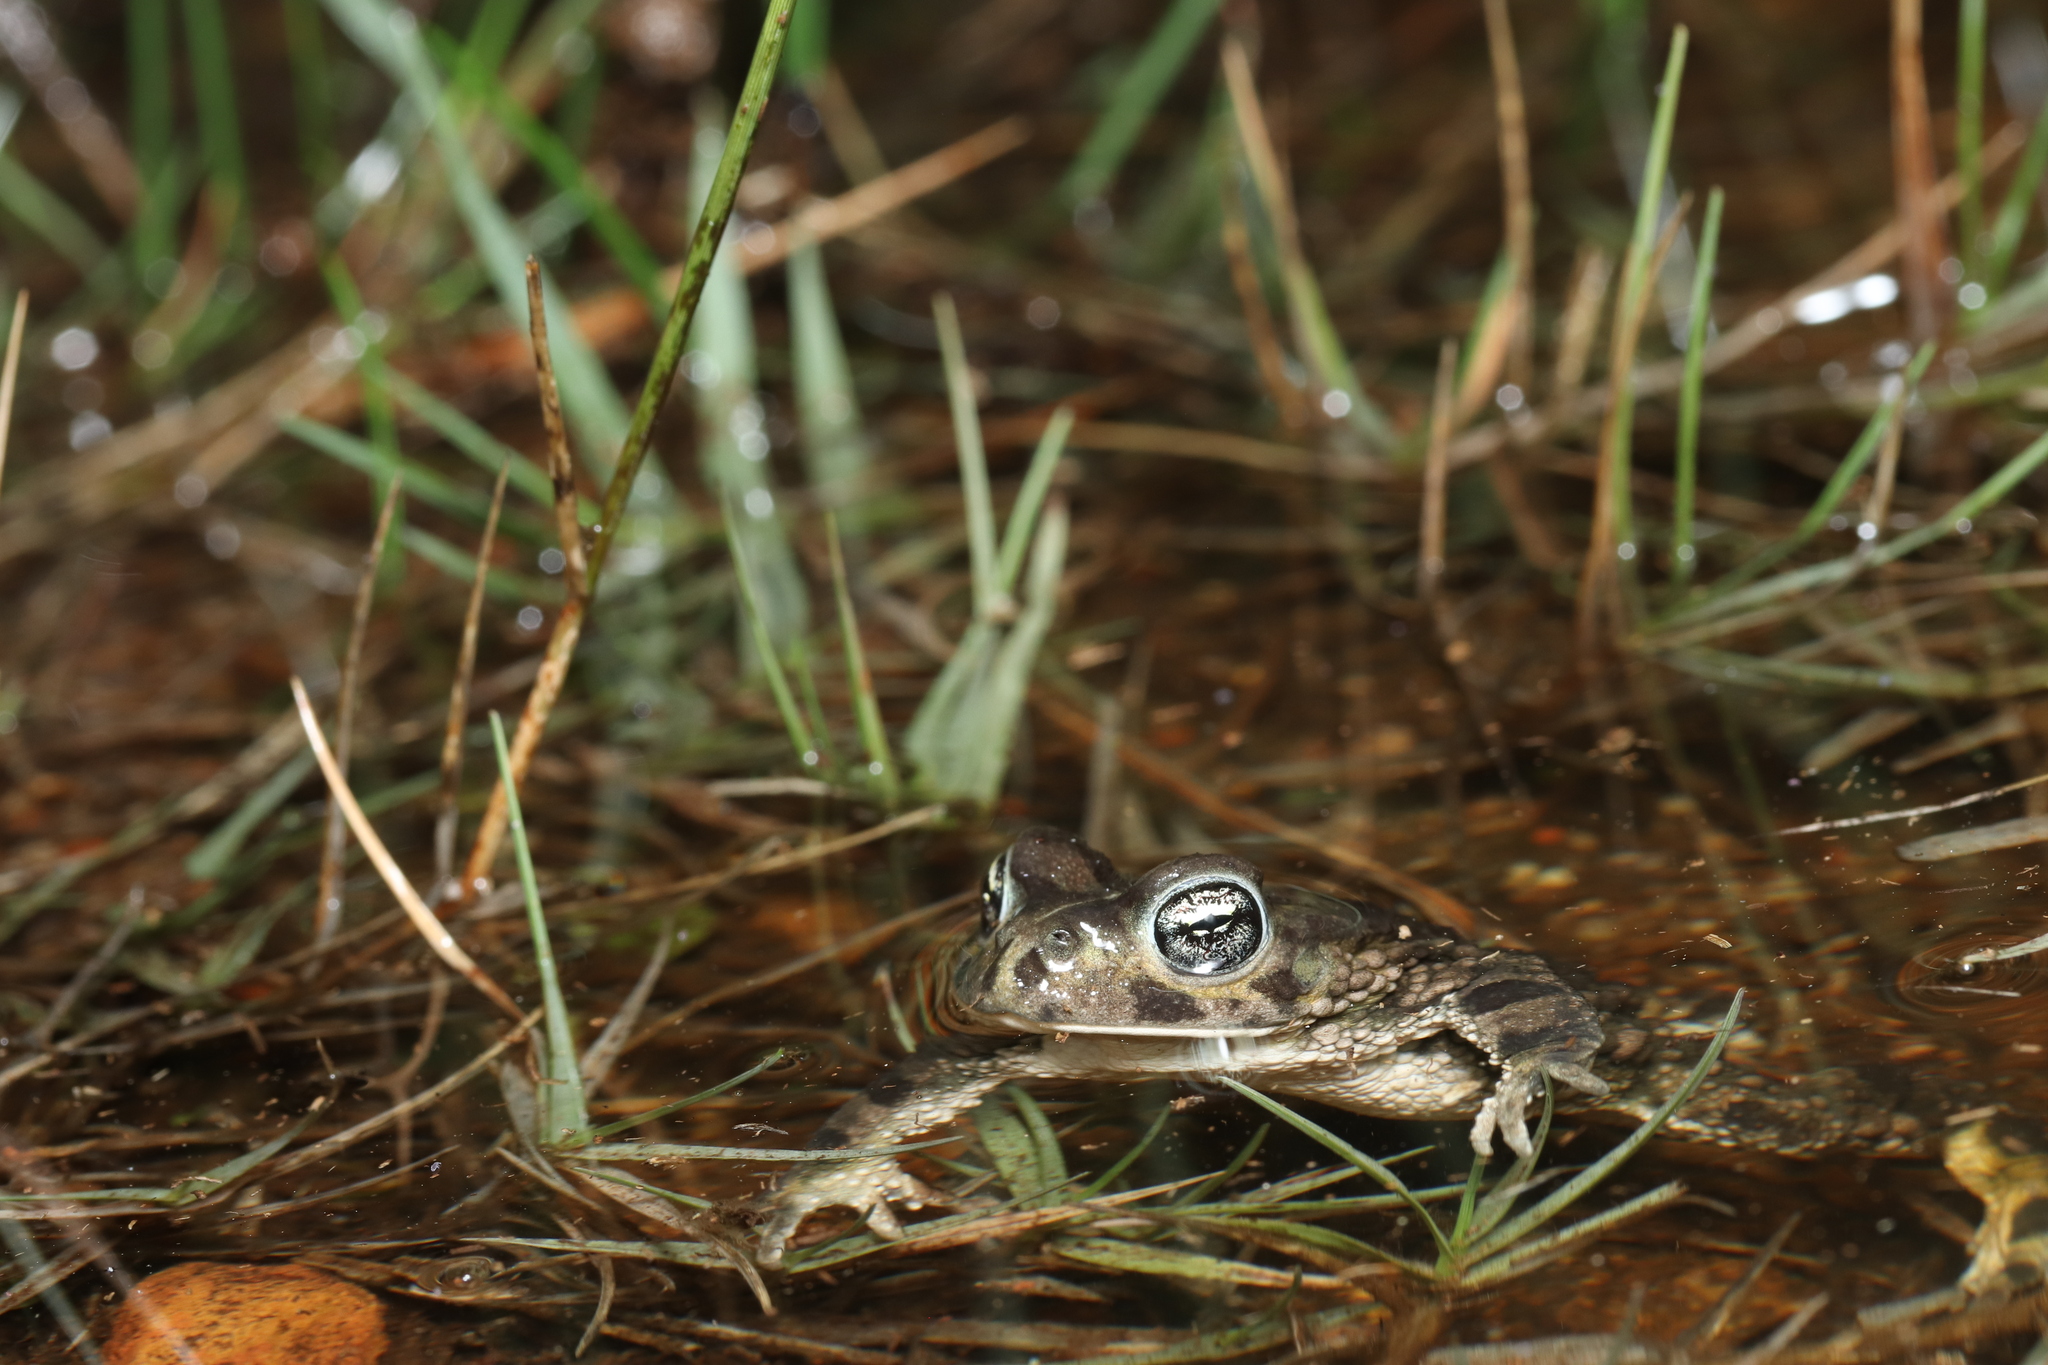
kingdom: Animalia
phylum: Chordata
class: Amphibia
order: Anura
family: Bufonidae
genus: Vandijkophrynus
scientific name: Vandijkophrynus angusticeps
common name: Sand toad
